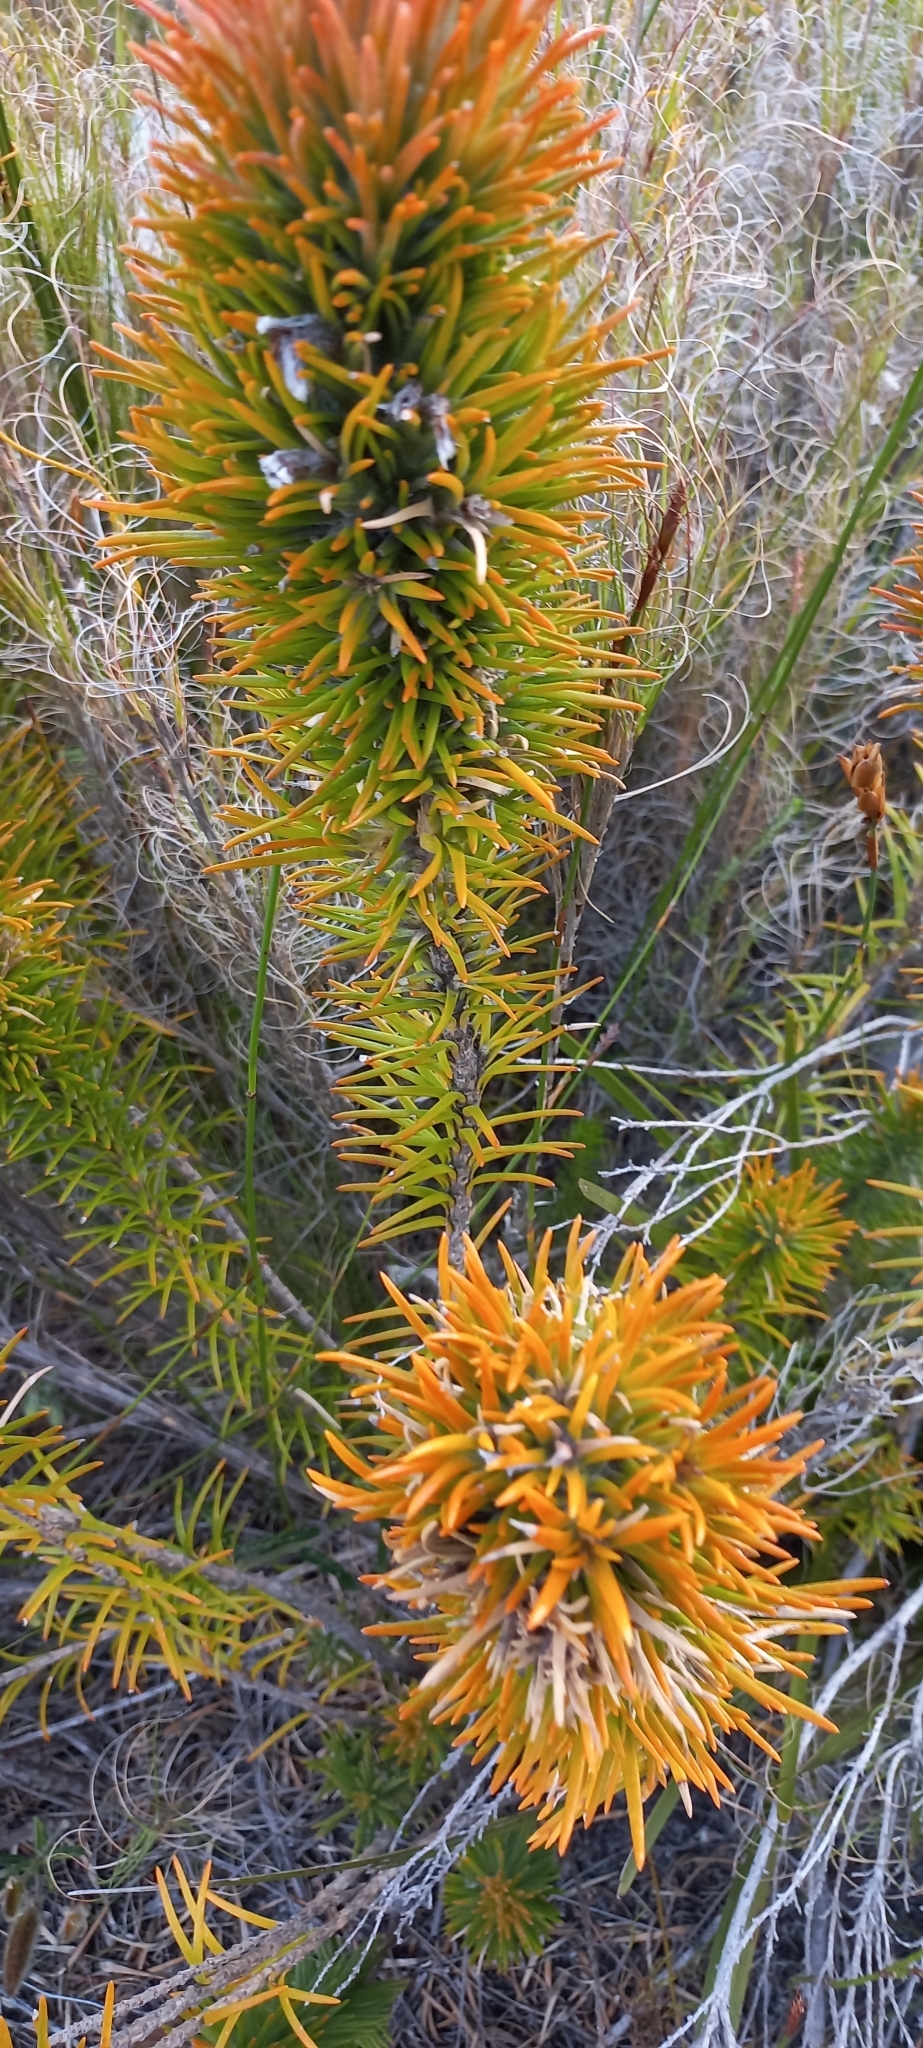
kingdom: Plantae
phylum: Tracheophyta
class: Magnoliopsida
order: Lamiales
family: Stilbaceae
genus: Retzia
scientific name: Retzia capensis
